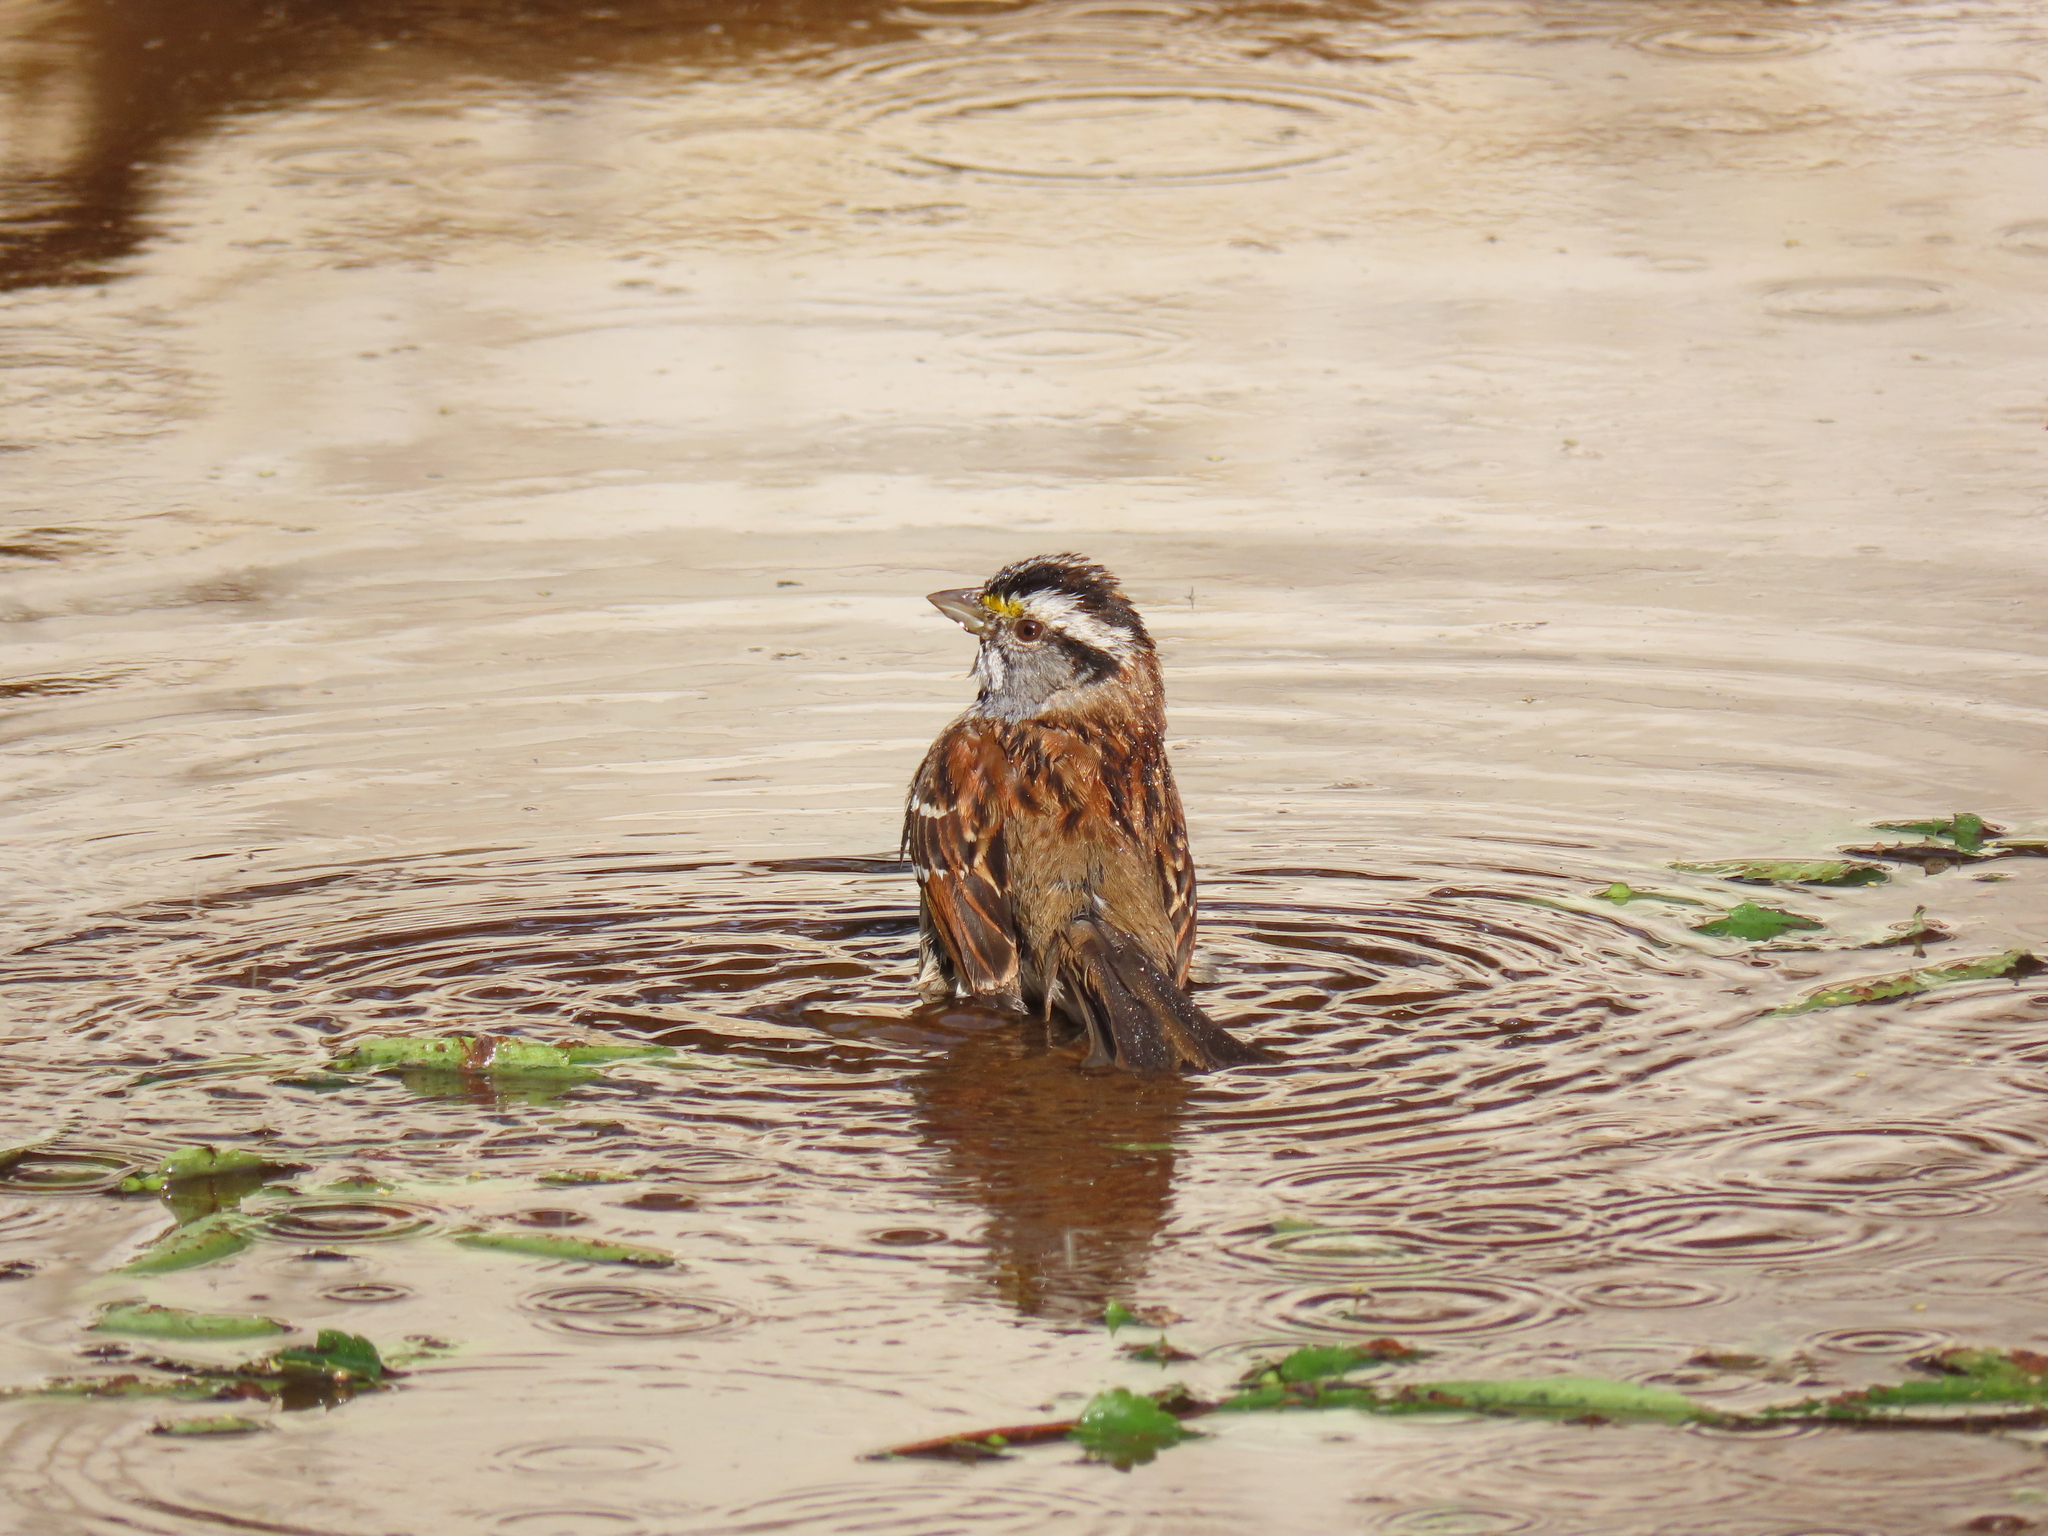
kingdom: Animalia
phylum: Chordata
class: Aves
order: Passeriformes
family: Passerellidae
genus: Zonotrichia
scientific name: Zonotrichia albicollis
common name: White-throated sparrow
